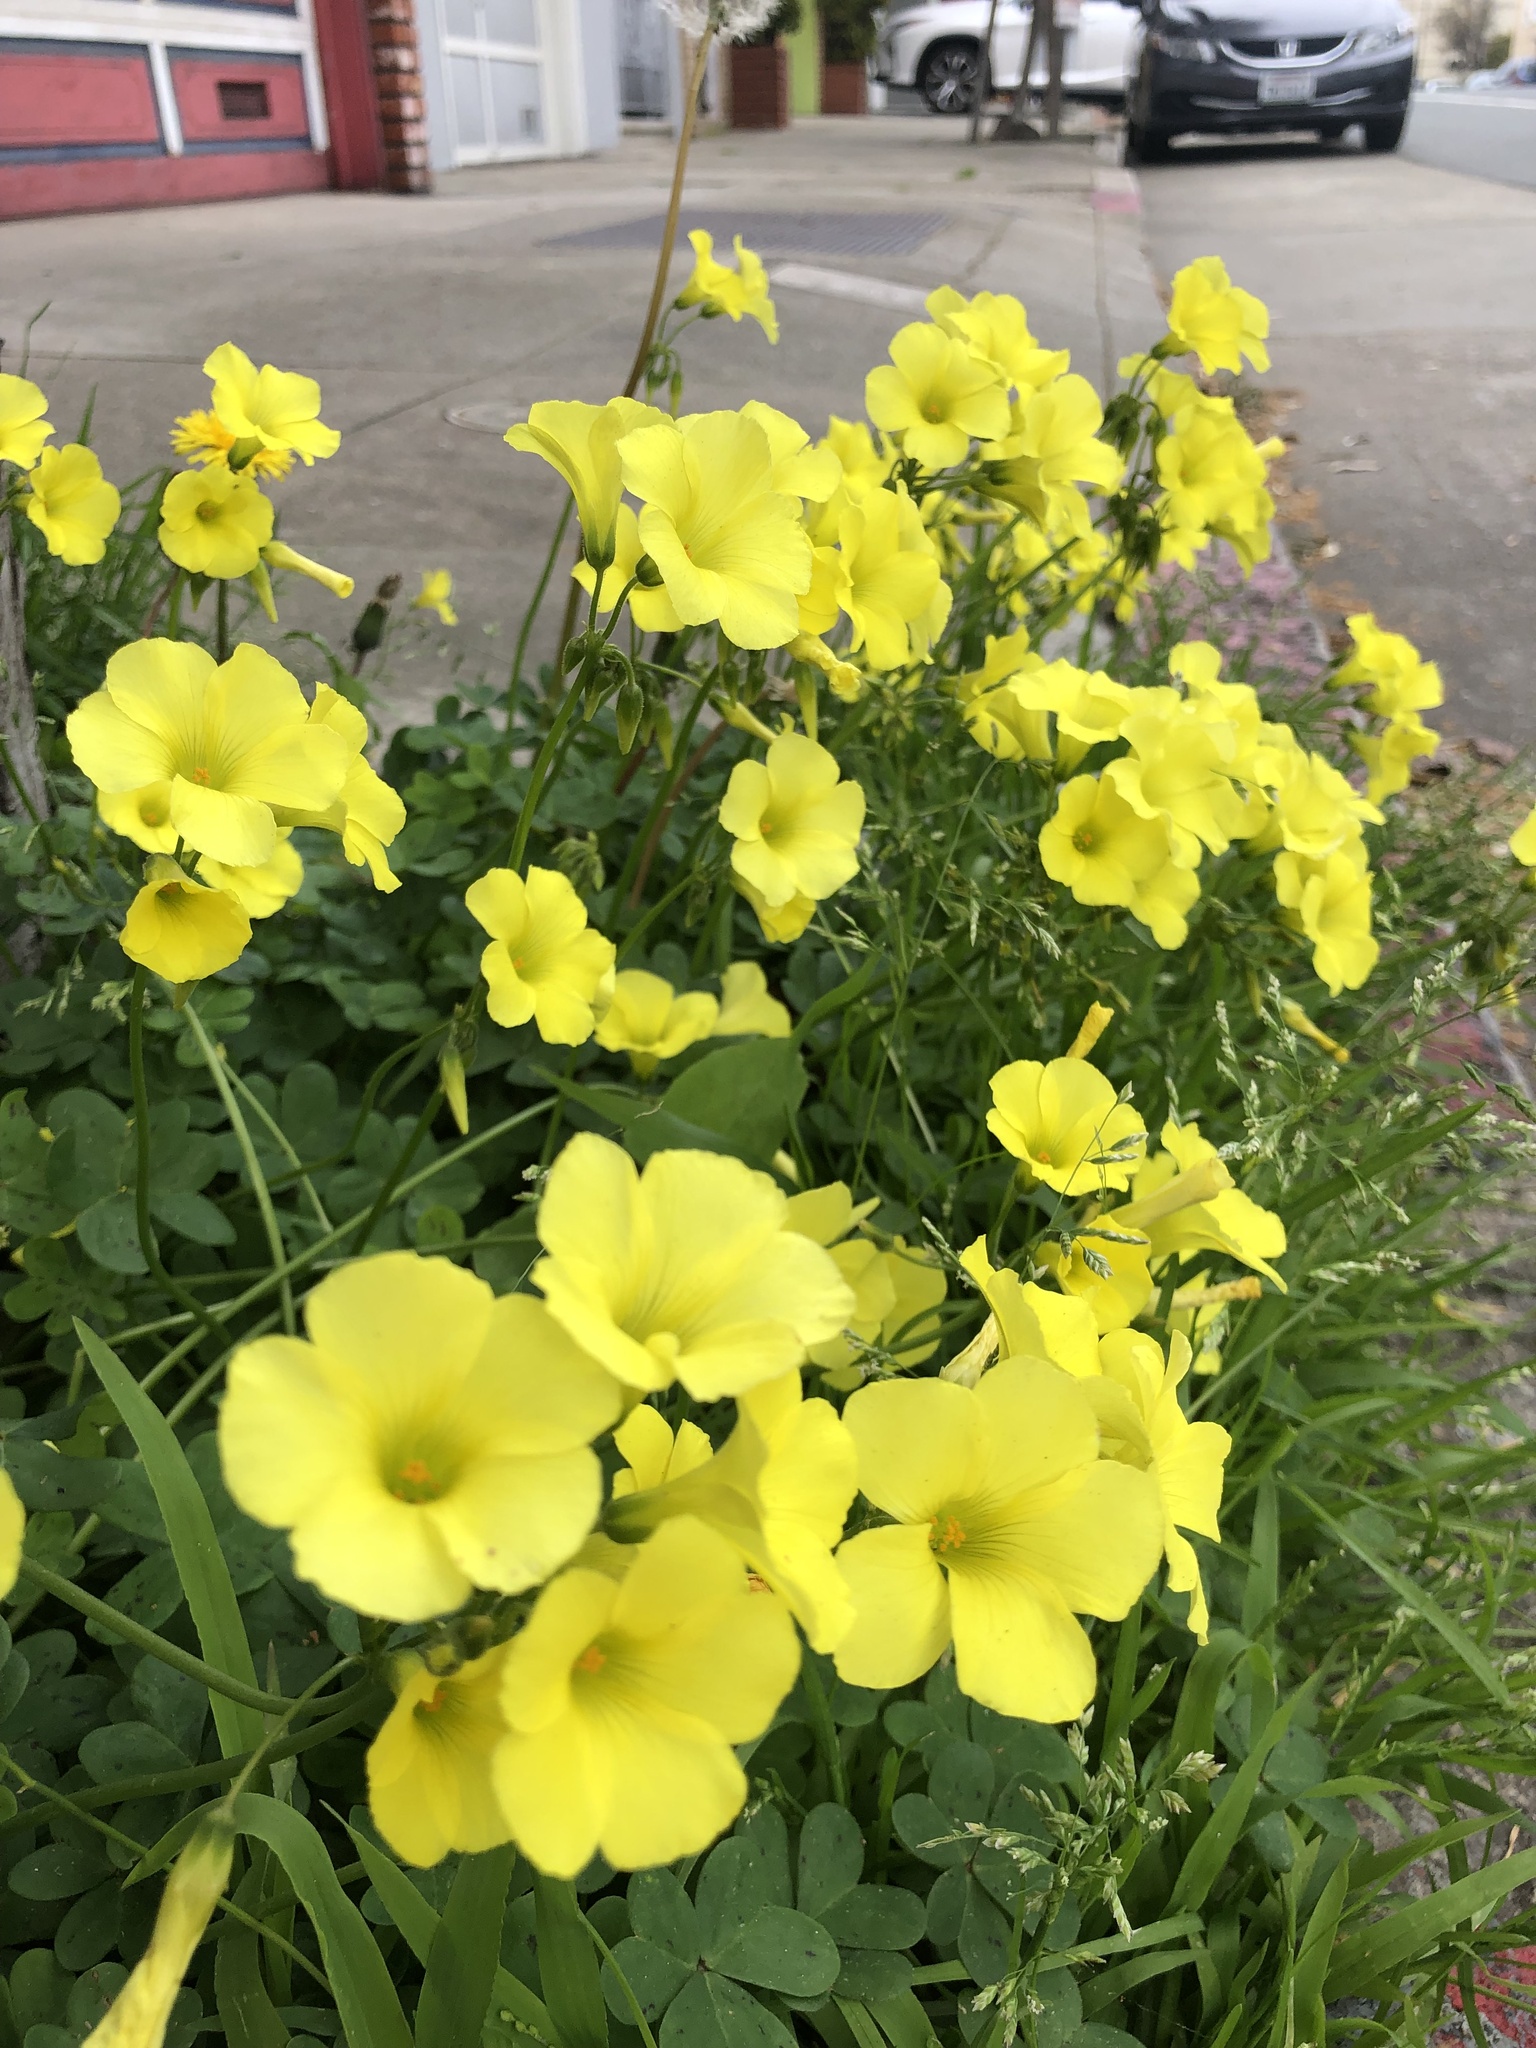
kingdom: Plantae
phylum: Tracheophyta
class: Magnoliopsida
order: Oxalidales
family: Oxalidaceae
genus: Oxalis
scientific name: Oxalis pes-caprae
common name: Bermuda-buttercup
